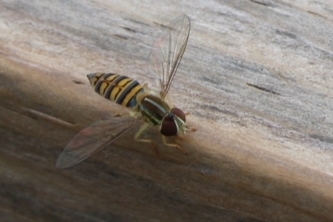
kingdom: Animalia
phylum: Arthropoda
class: Insecta
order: Diptera
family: Syrphidae
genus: Toxomerus
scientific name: Toxomerus politus
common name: Maize calligrapher
